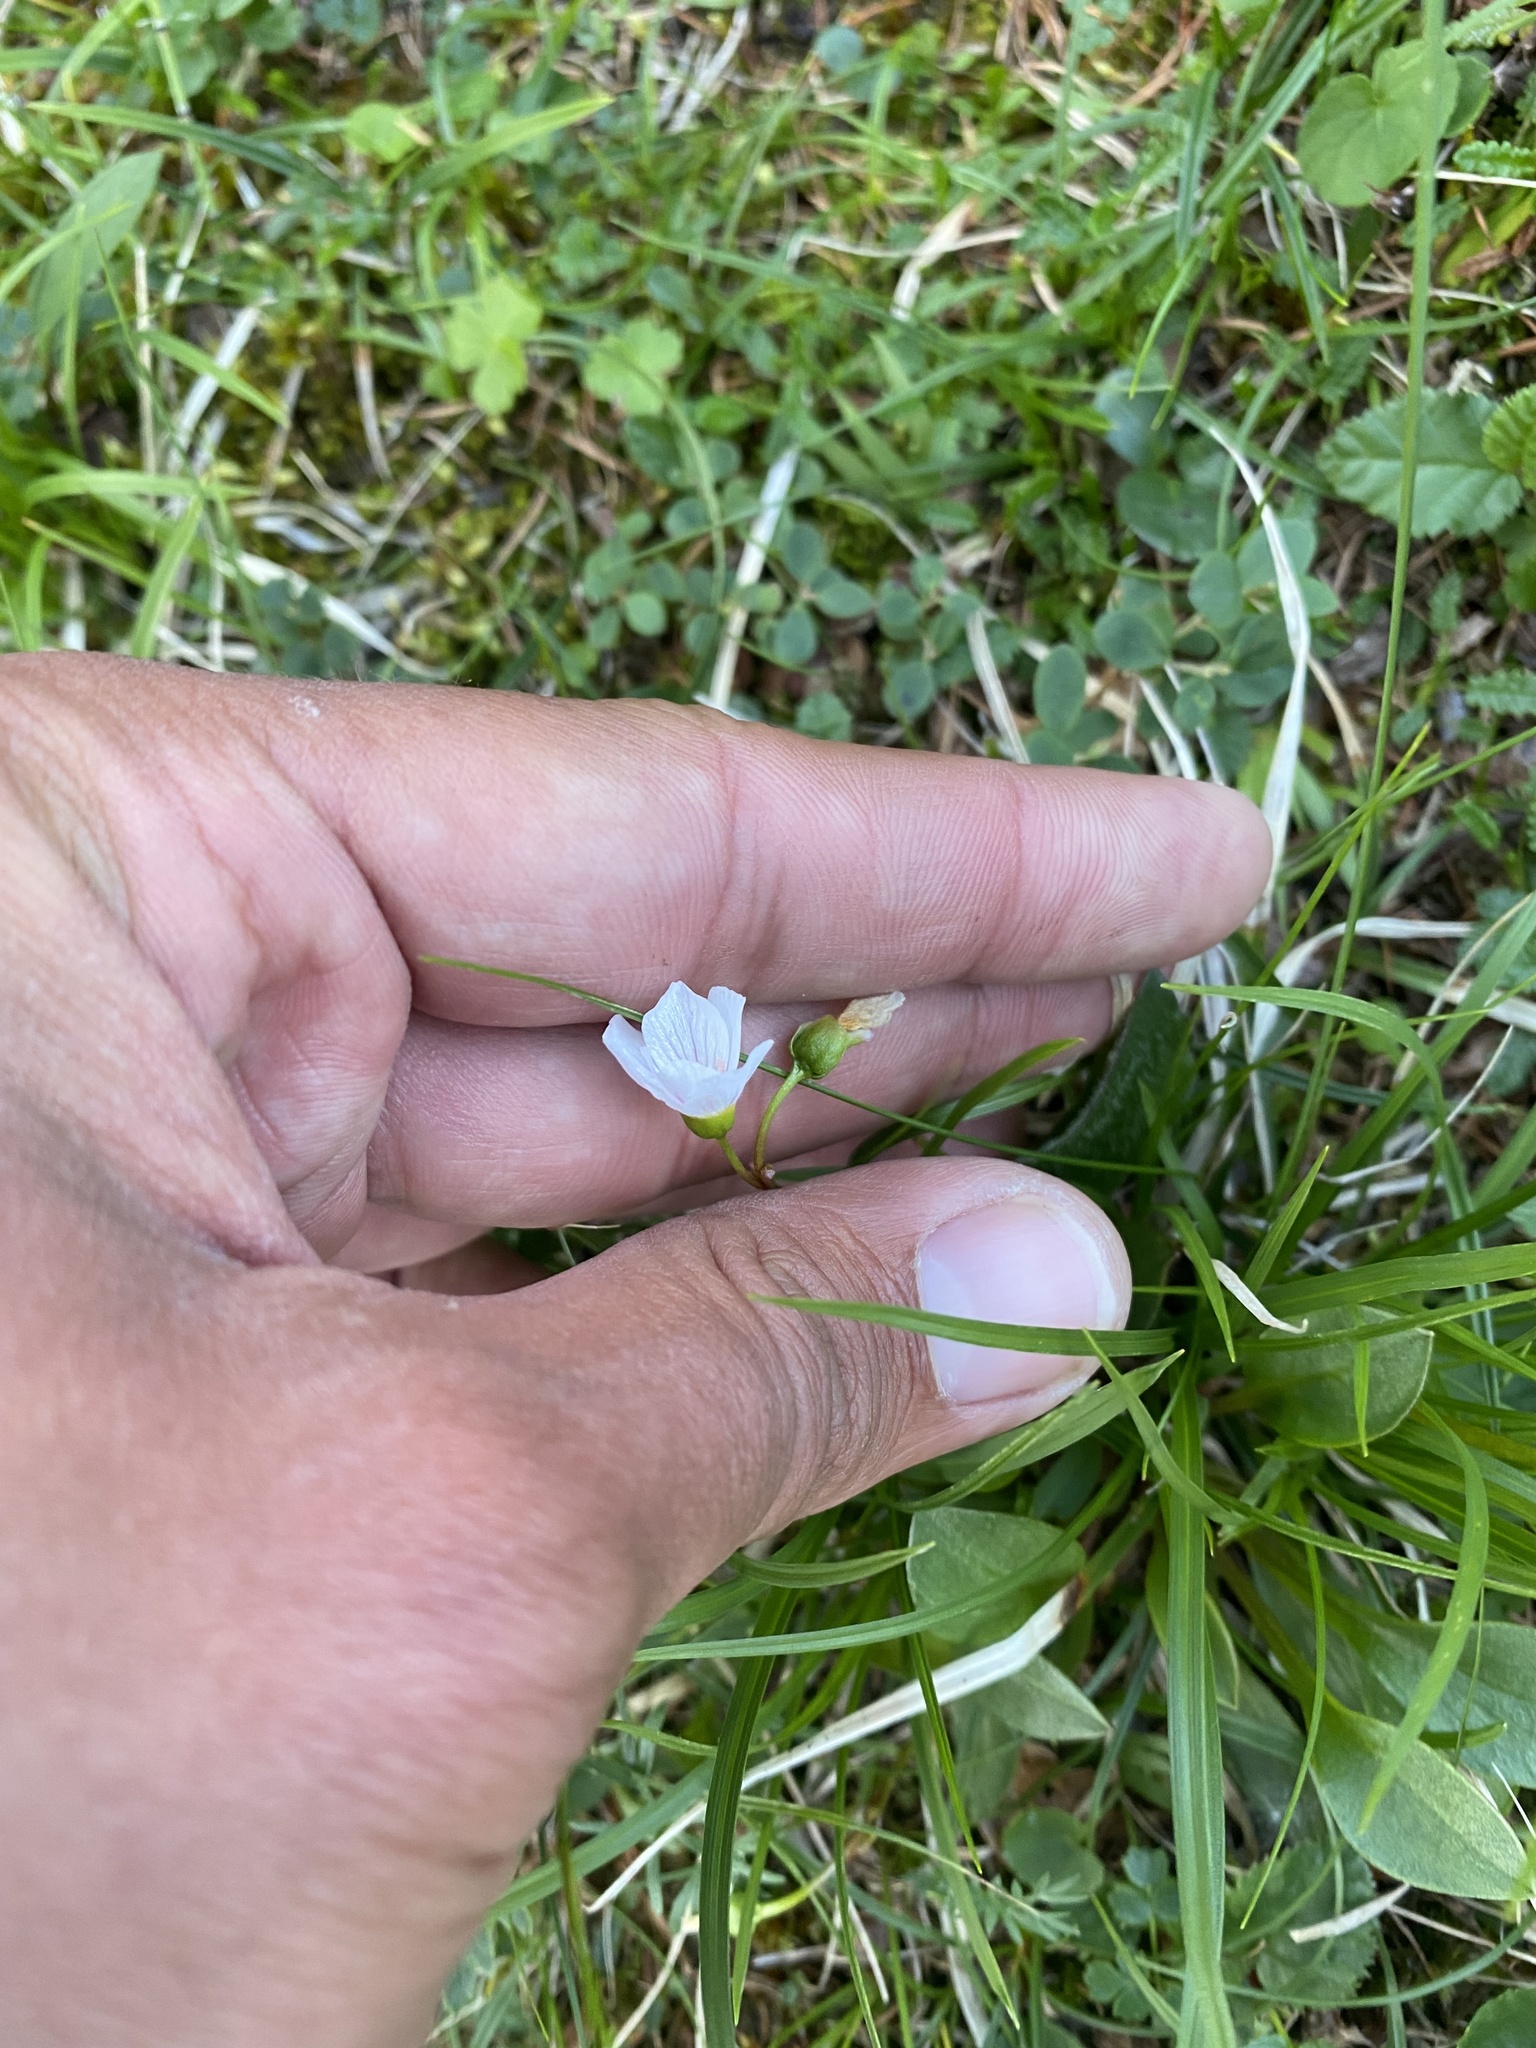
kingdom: Plantae
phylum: Tracheophyta
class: Magnoliopsida
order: Caryophyllales
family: Montiaceae
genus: Claytonia
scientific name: Claytonia joanneana
